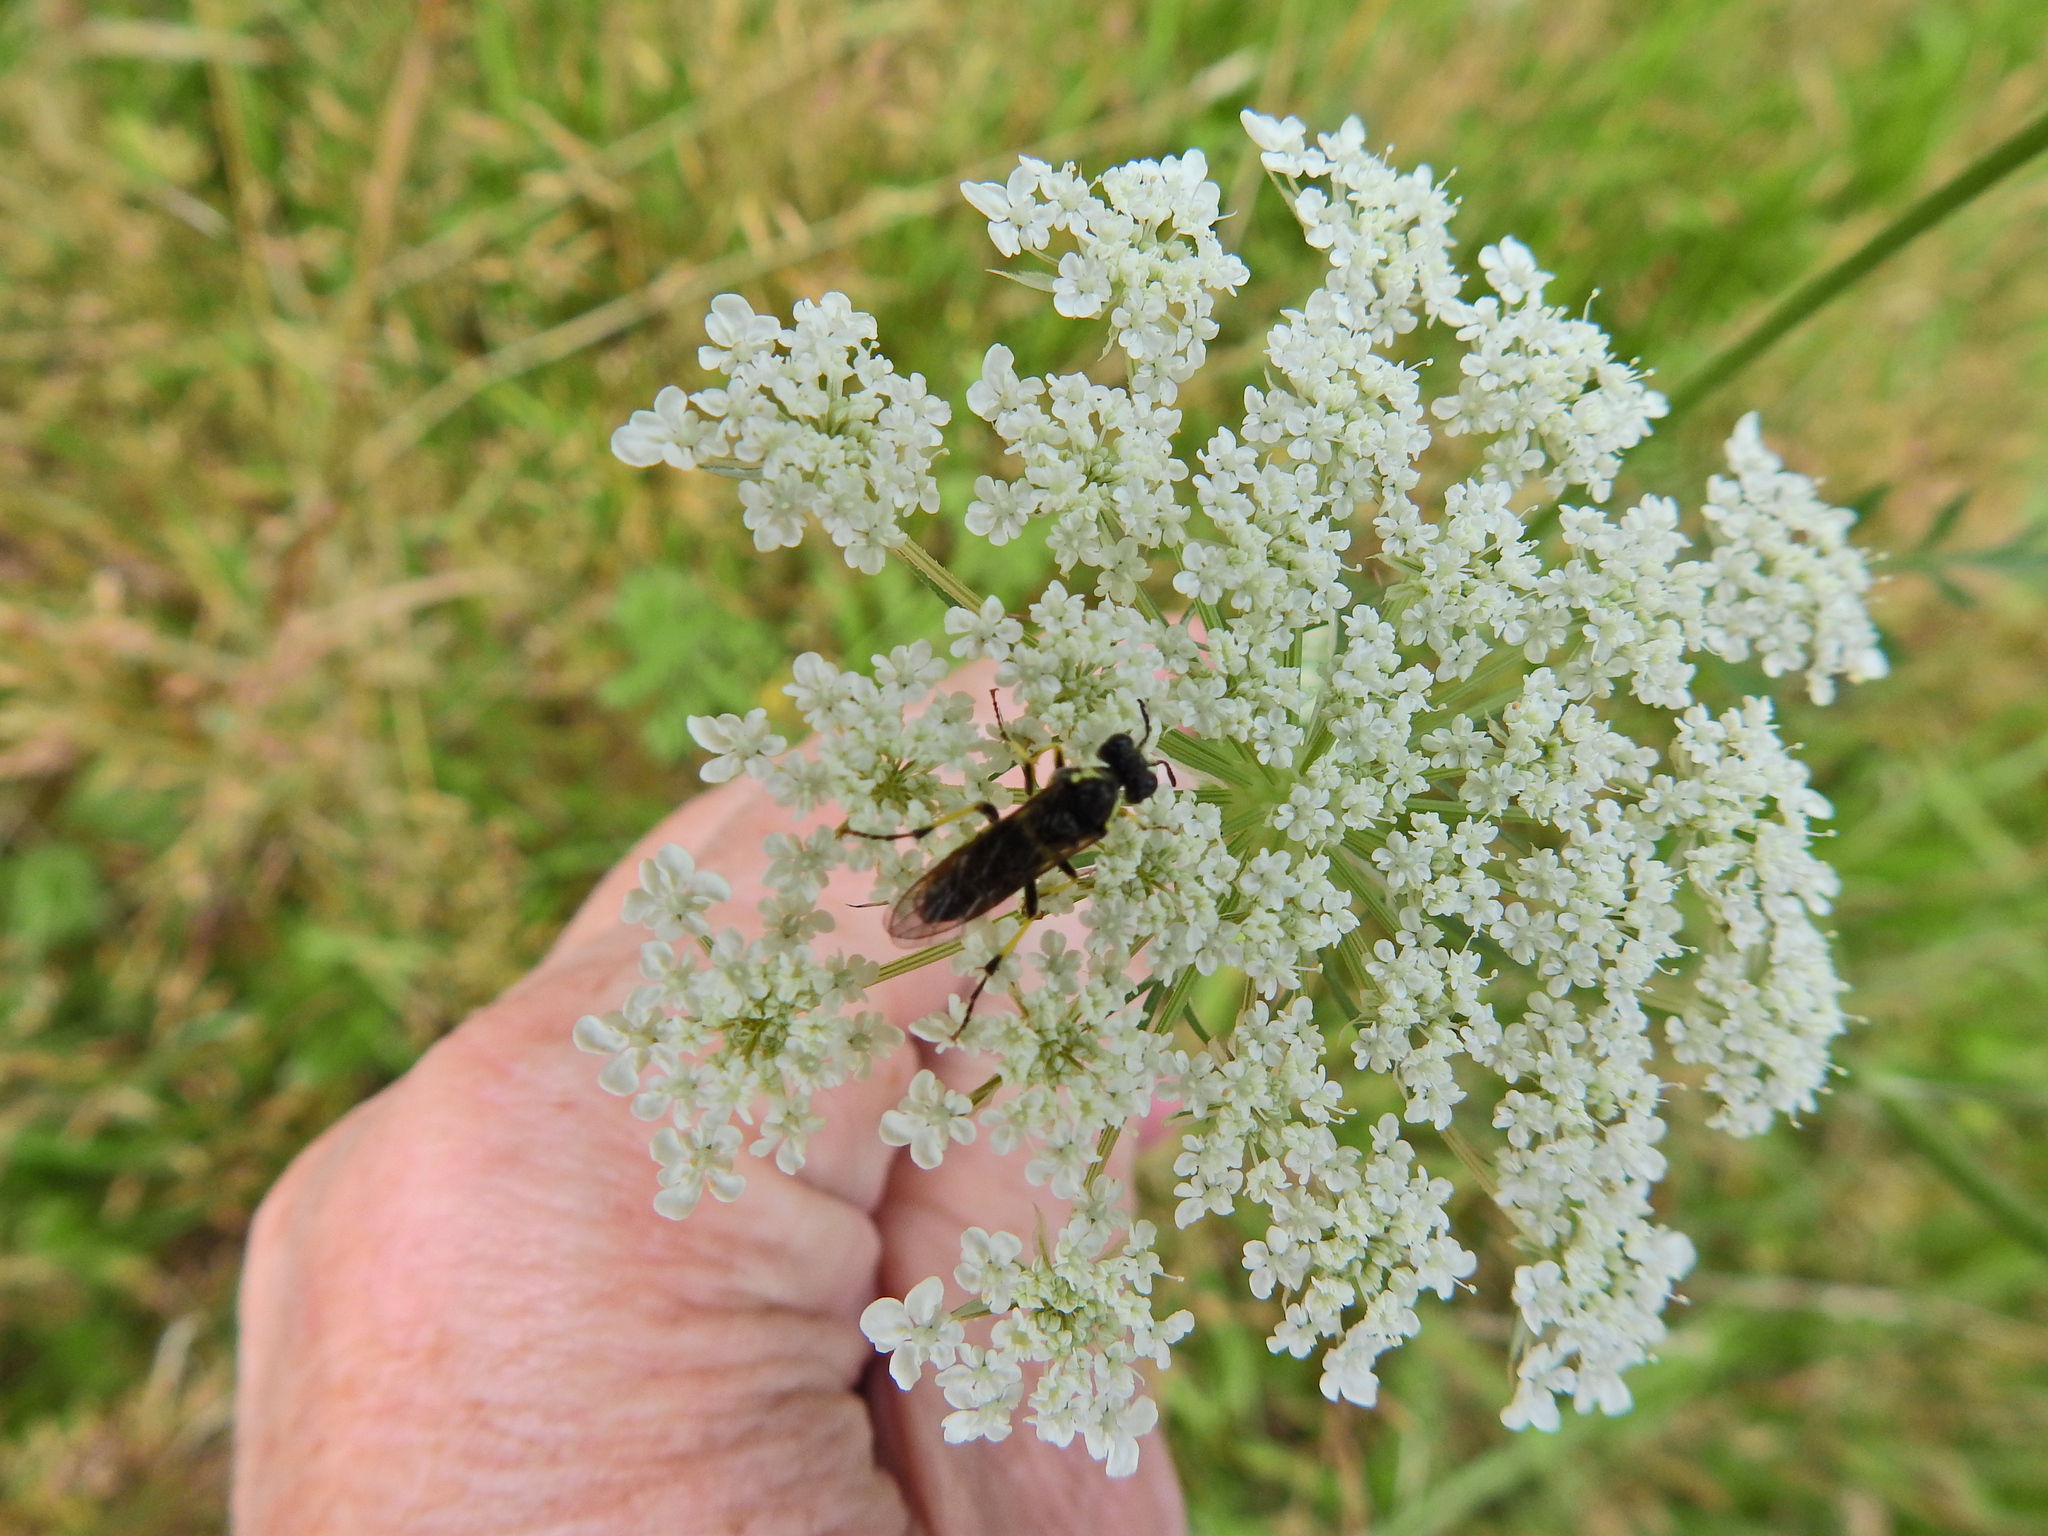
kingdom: Animalia
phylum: Arthropoda
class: Insecta
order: Hymenoptera
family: Tenthredinidae
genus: Tenthredo
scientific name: Tenthredo notha
